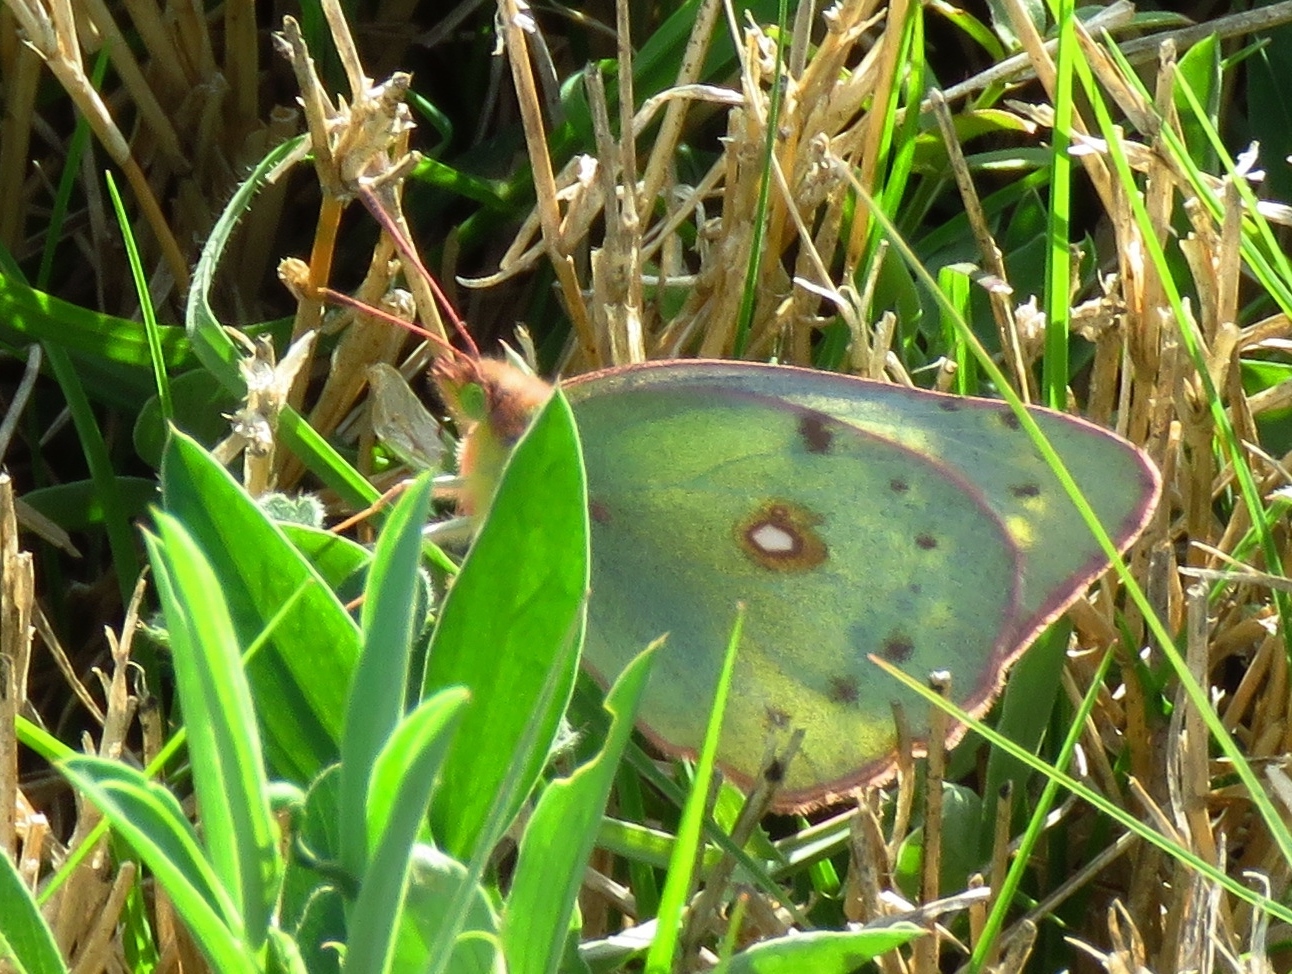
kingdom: Animalia
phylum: Arthropoda
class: Insecta
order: Lepidoptera
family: Pieridae
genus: Colias
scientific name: Colias eurytheme
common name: Alfalfa butterfly
